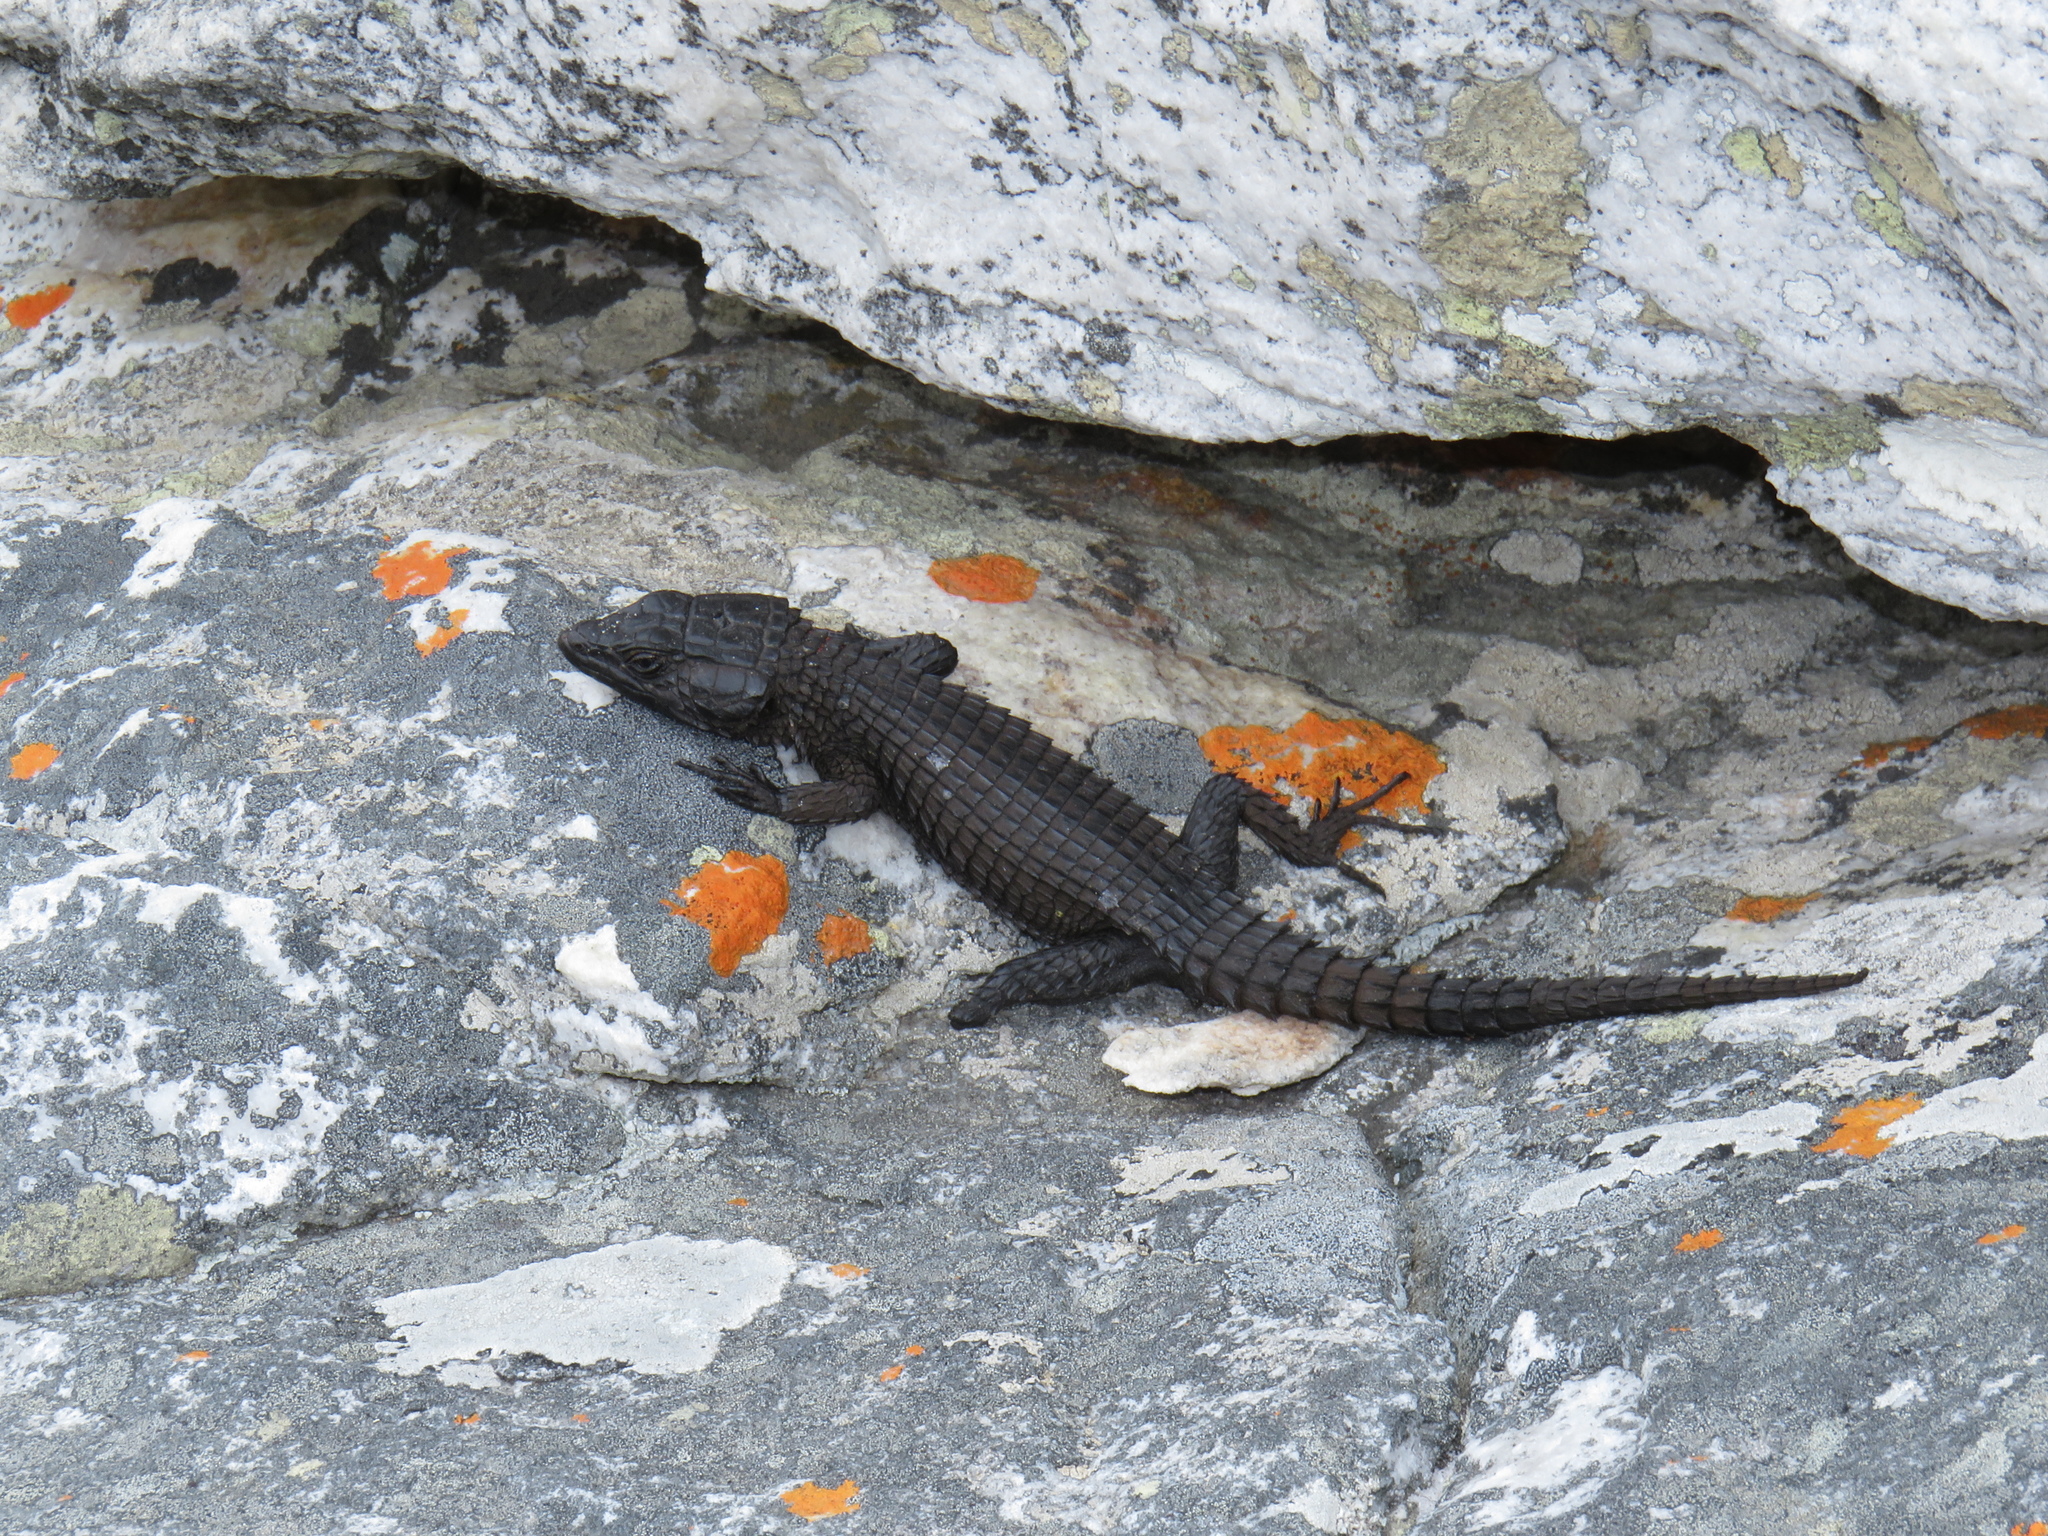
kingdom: Animalia
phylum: Chordata
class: Squamata
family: Cordylidae
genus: Cordylus
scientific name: Cordylus niger
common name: Black girdled lizard
